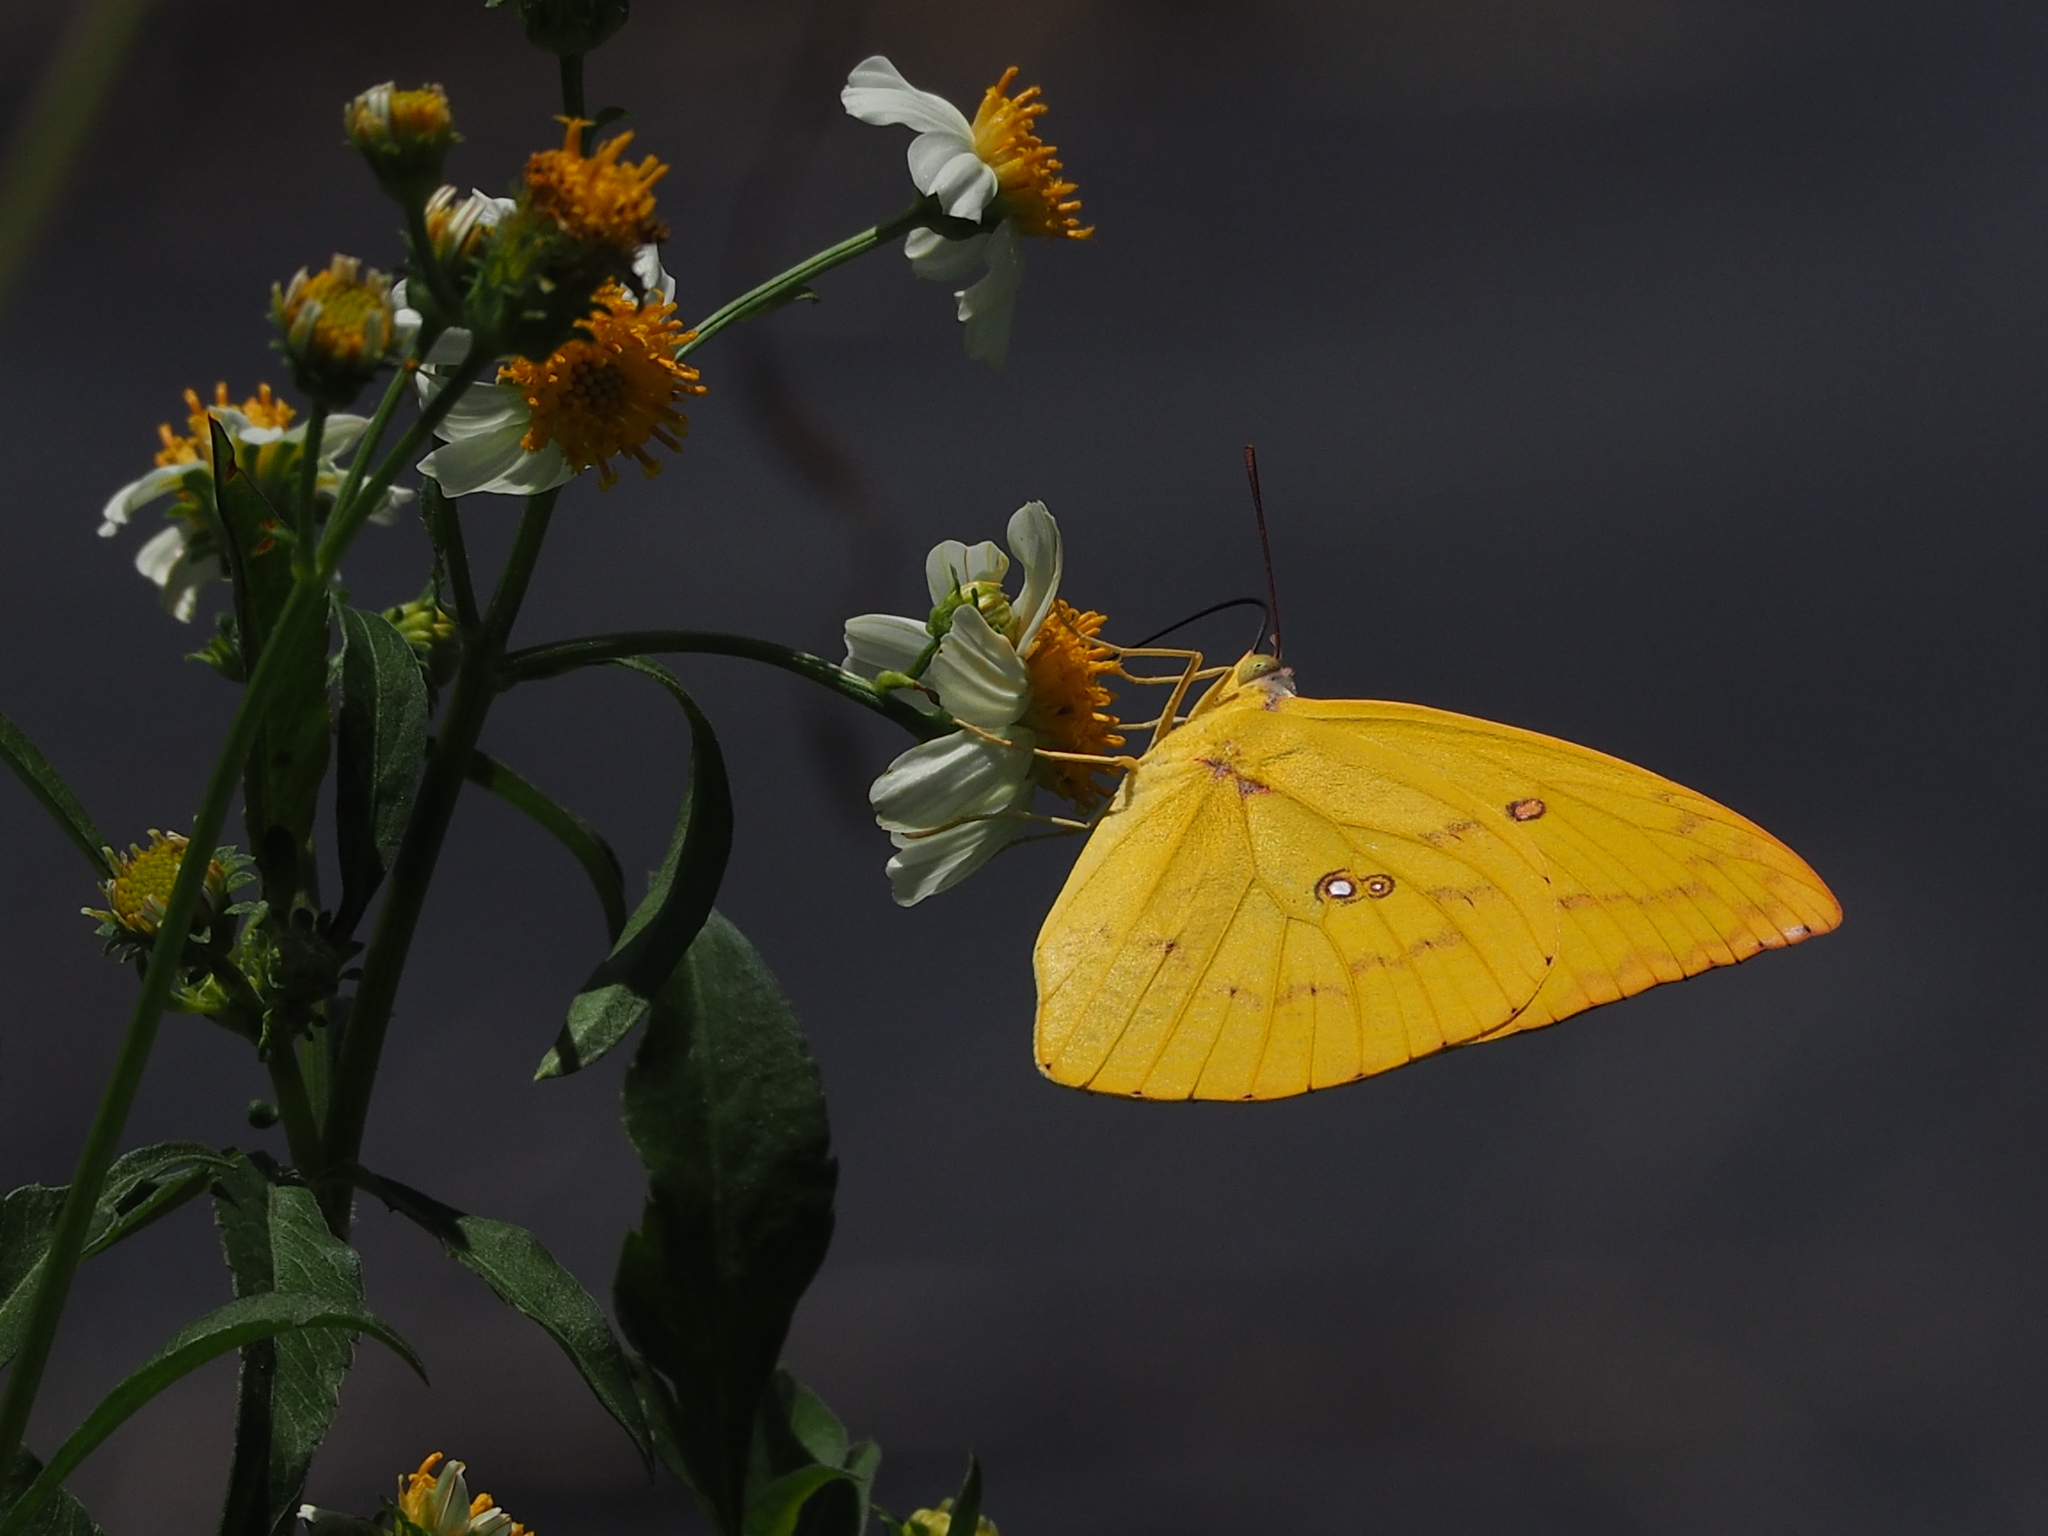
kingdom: Animalia
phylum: Arthropoda
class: Insecta
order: Lepidoptera
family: Pieridae
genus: Catopsilia
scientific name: Catopsilia pomona
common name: Common emigrant
